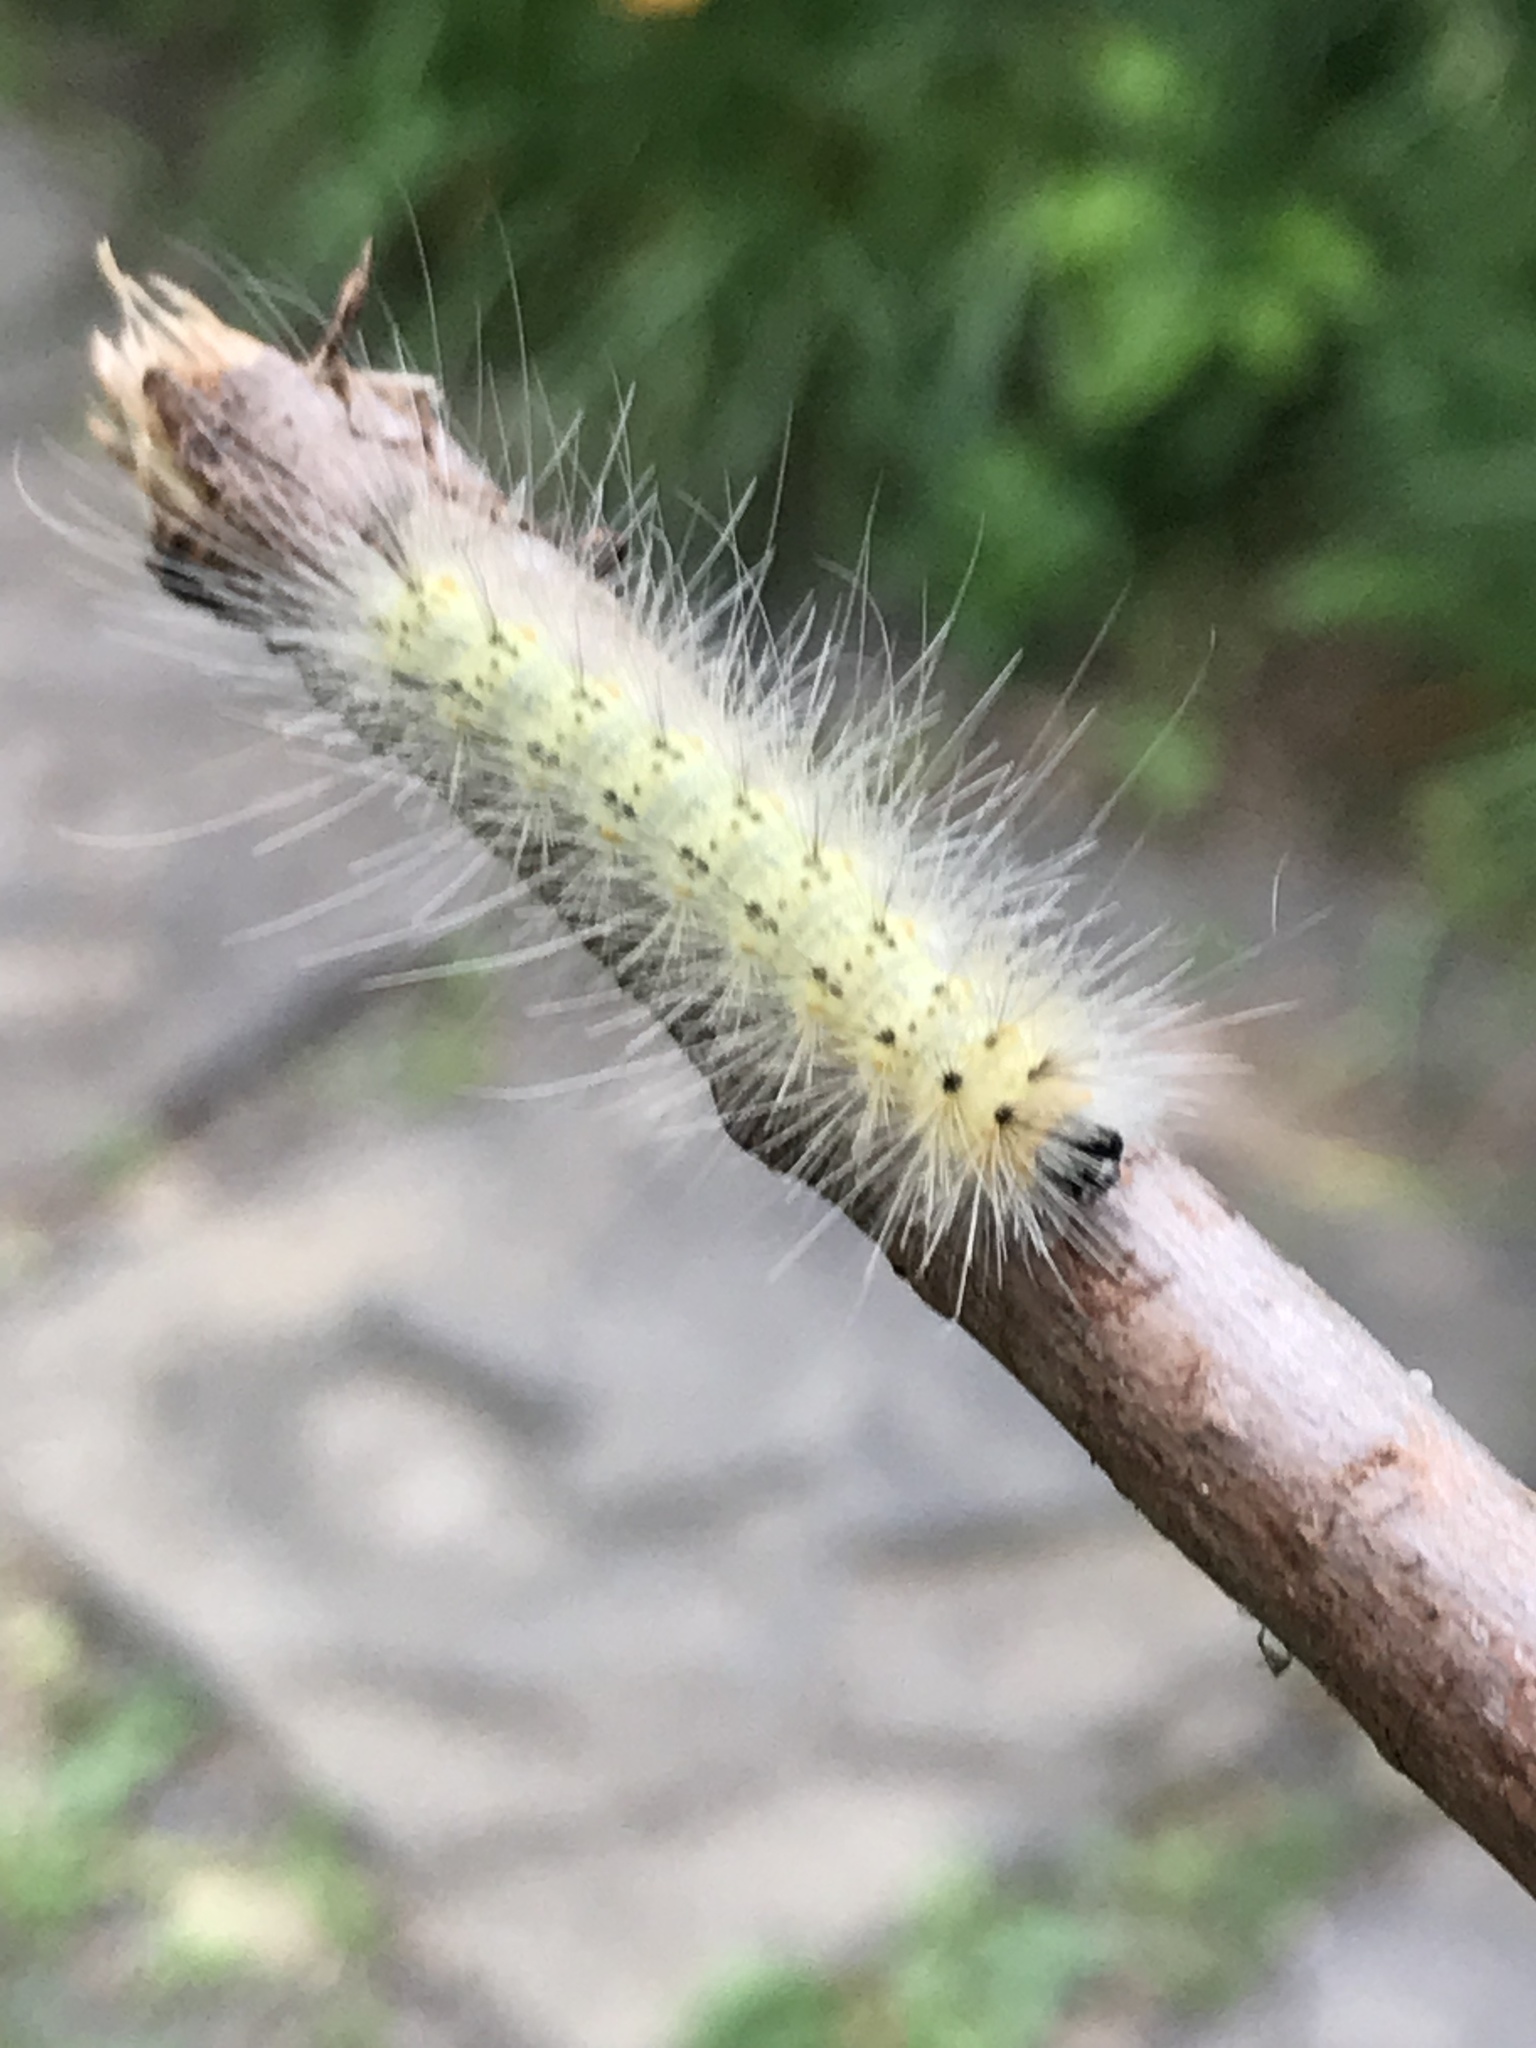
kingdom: Animalia
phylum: Arthropoda
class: Insecta
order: Lepidoptera
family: Erebidae
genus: Hyphantria
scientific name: Hyphantria cunea
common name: American white moth
